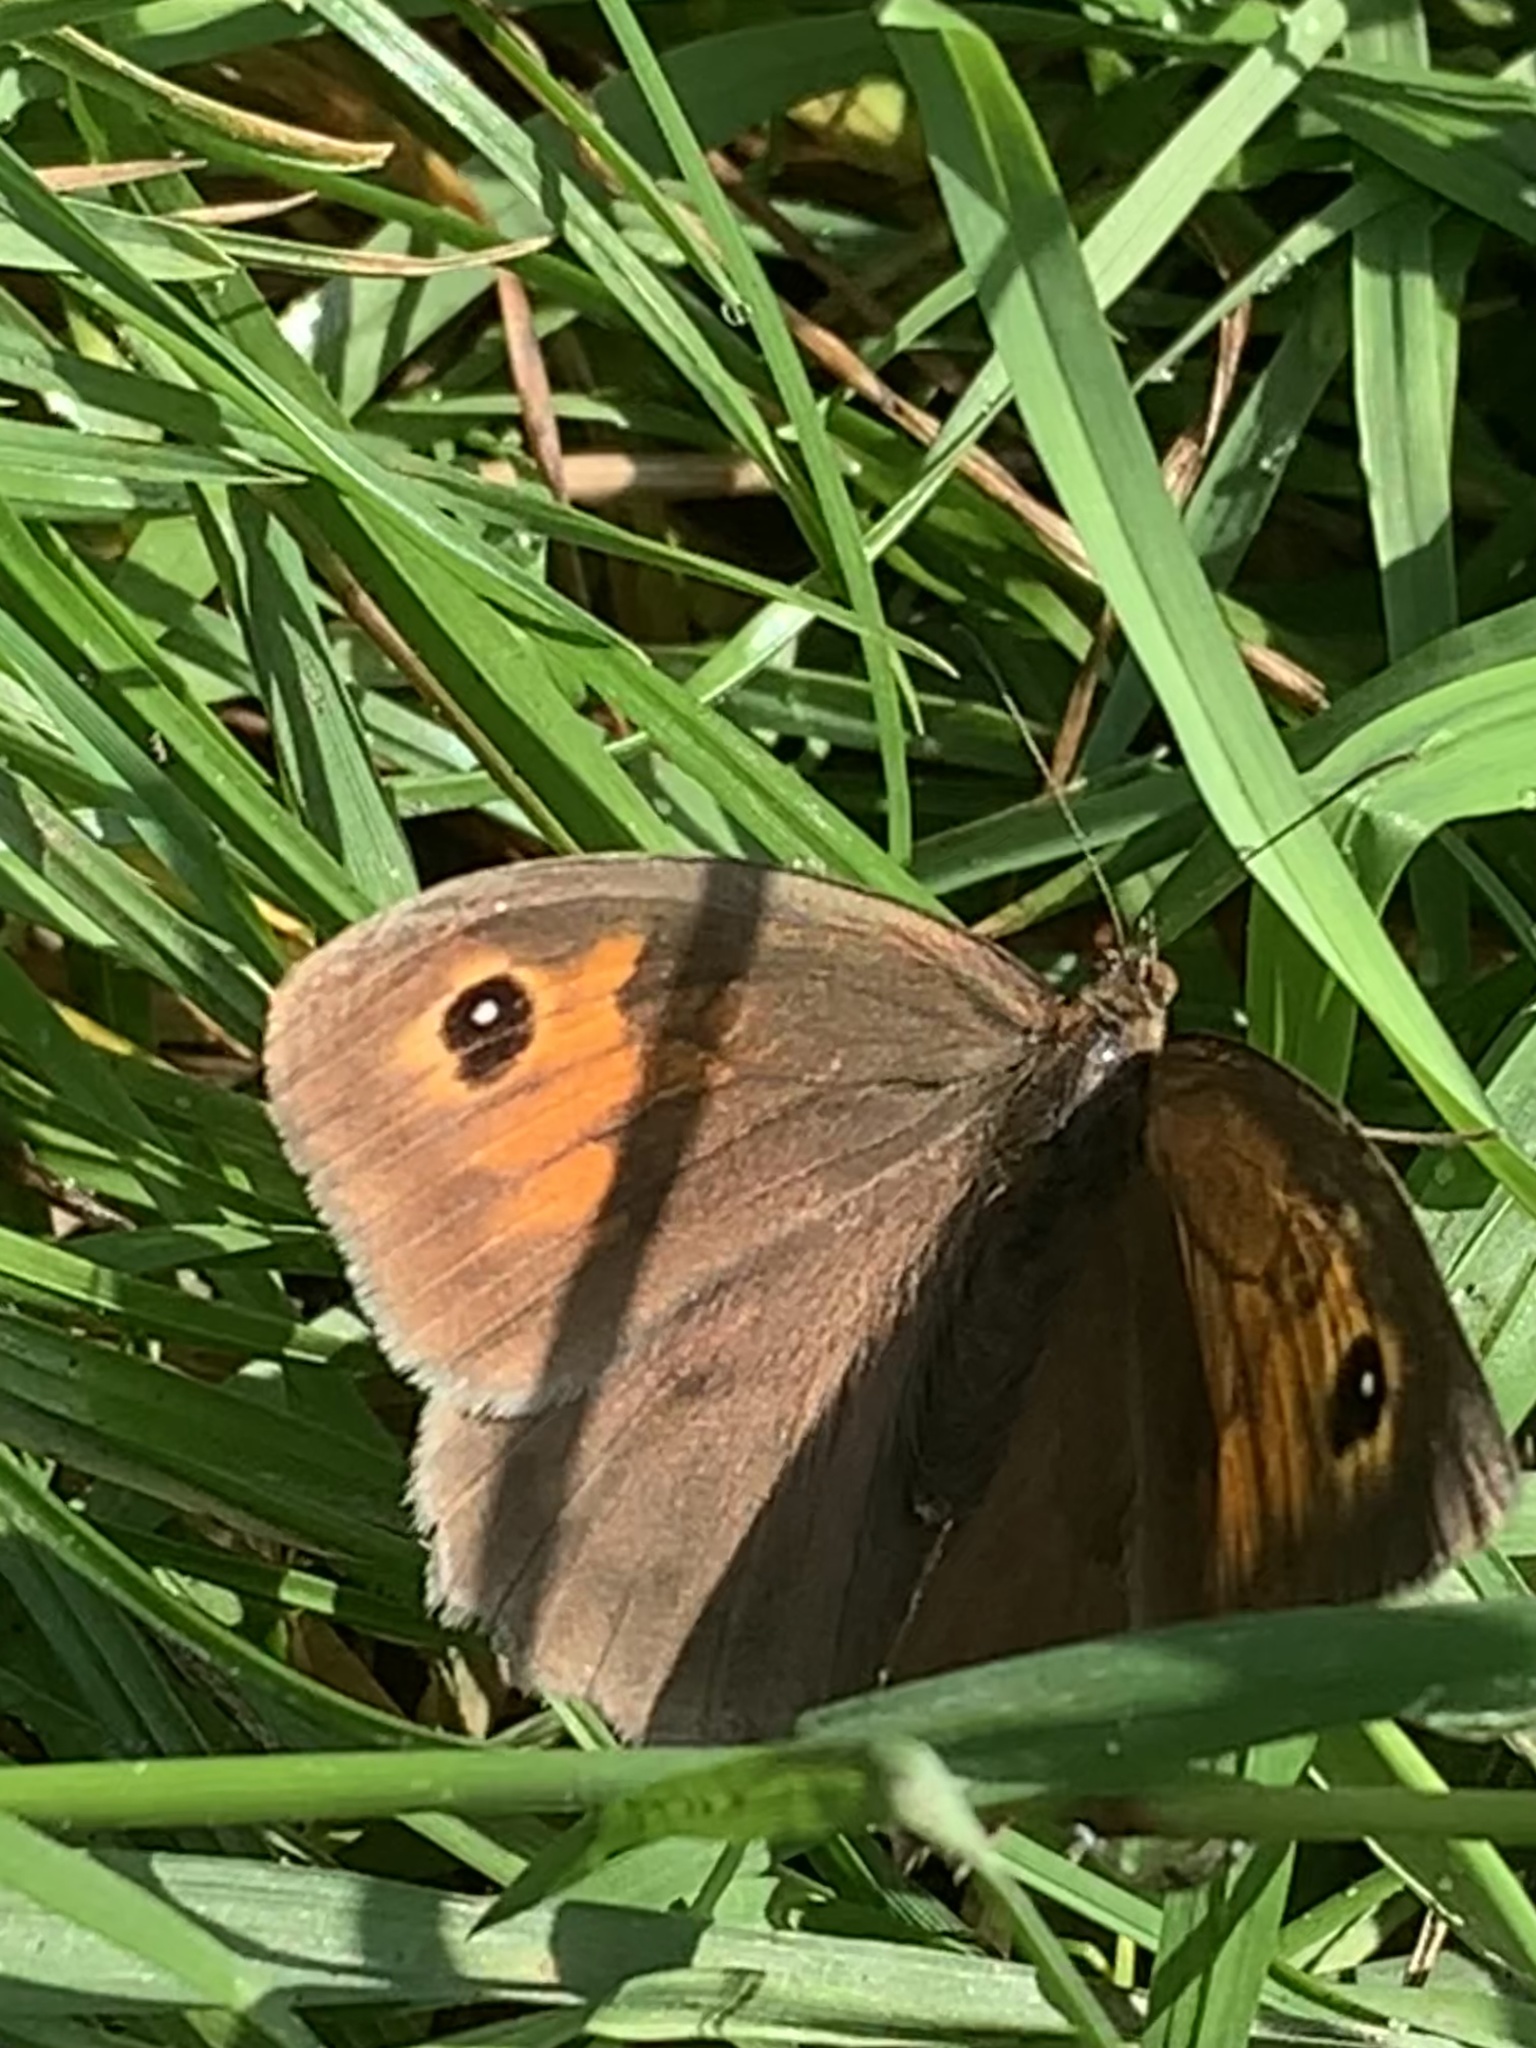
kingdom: Animalia
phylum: Arthropoda
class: Insecta
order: Lepidoptera
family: Nymphalidae
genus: Maniola
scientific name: Maniola jurtina
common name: Meadow brown
